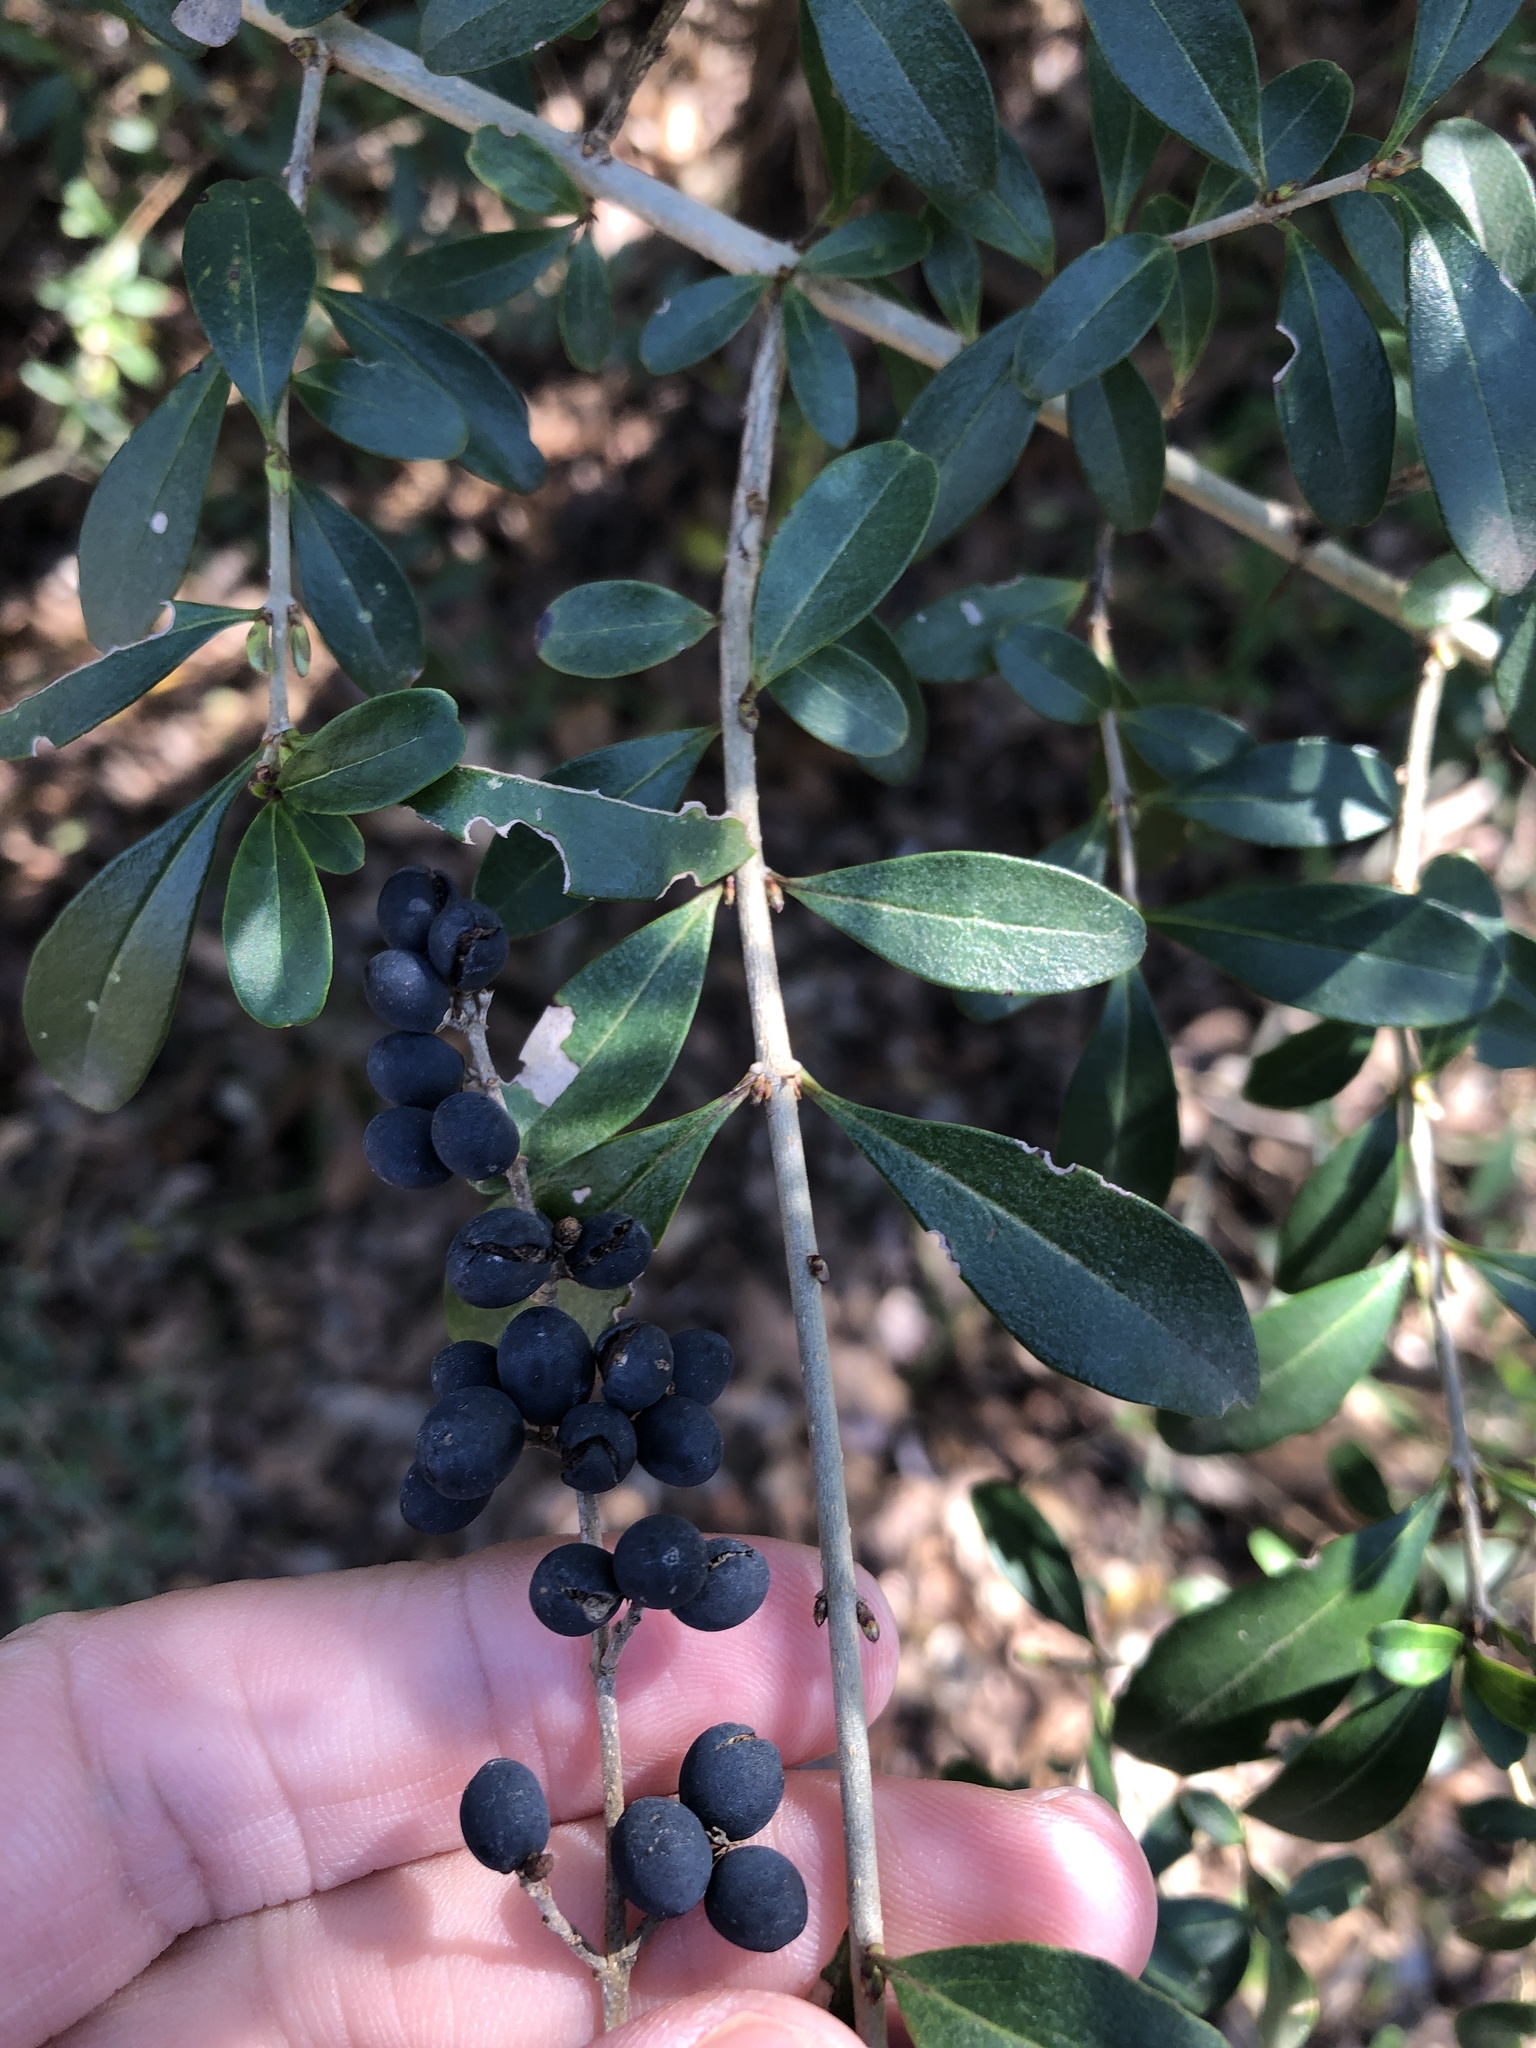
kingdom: Plantae
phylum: Tracheophyta
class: Magnoliopsida
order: Lamiales
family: Oleaceae
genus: Ligustrum
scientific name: Ligustrum quihoui
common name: Waxyleaf privet
